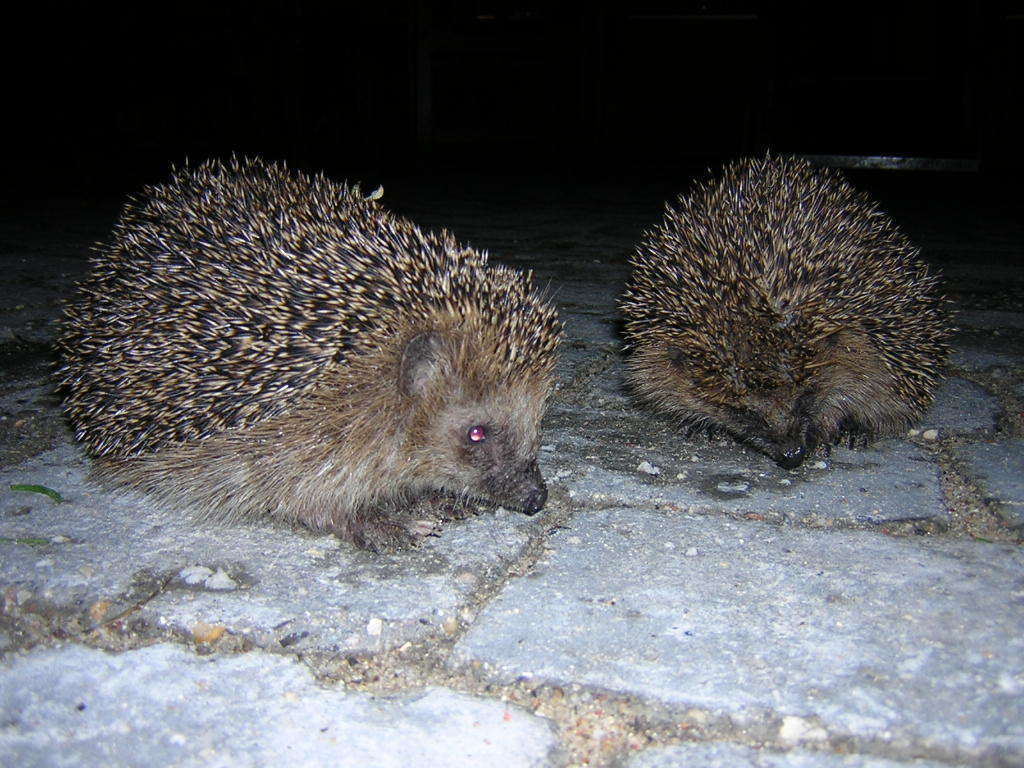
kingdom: Animalia
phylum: Chordata
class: Mammalia
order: Erinaceomorpha
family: Erinaceidae
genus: Erinaceus
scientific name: Erinaceus europaeus
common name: West european hedgehog
